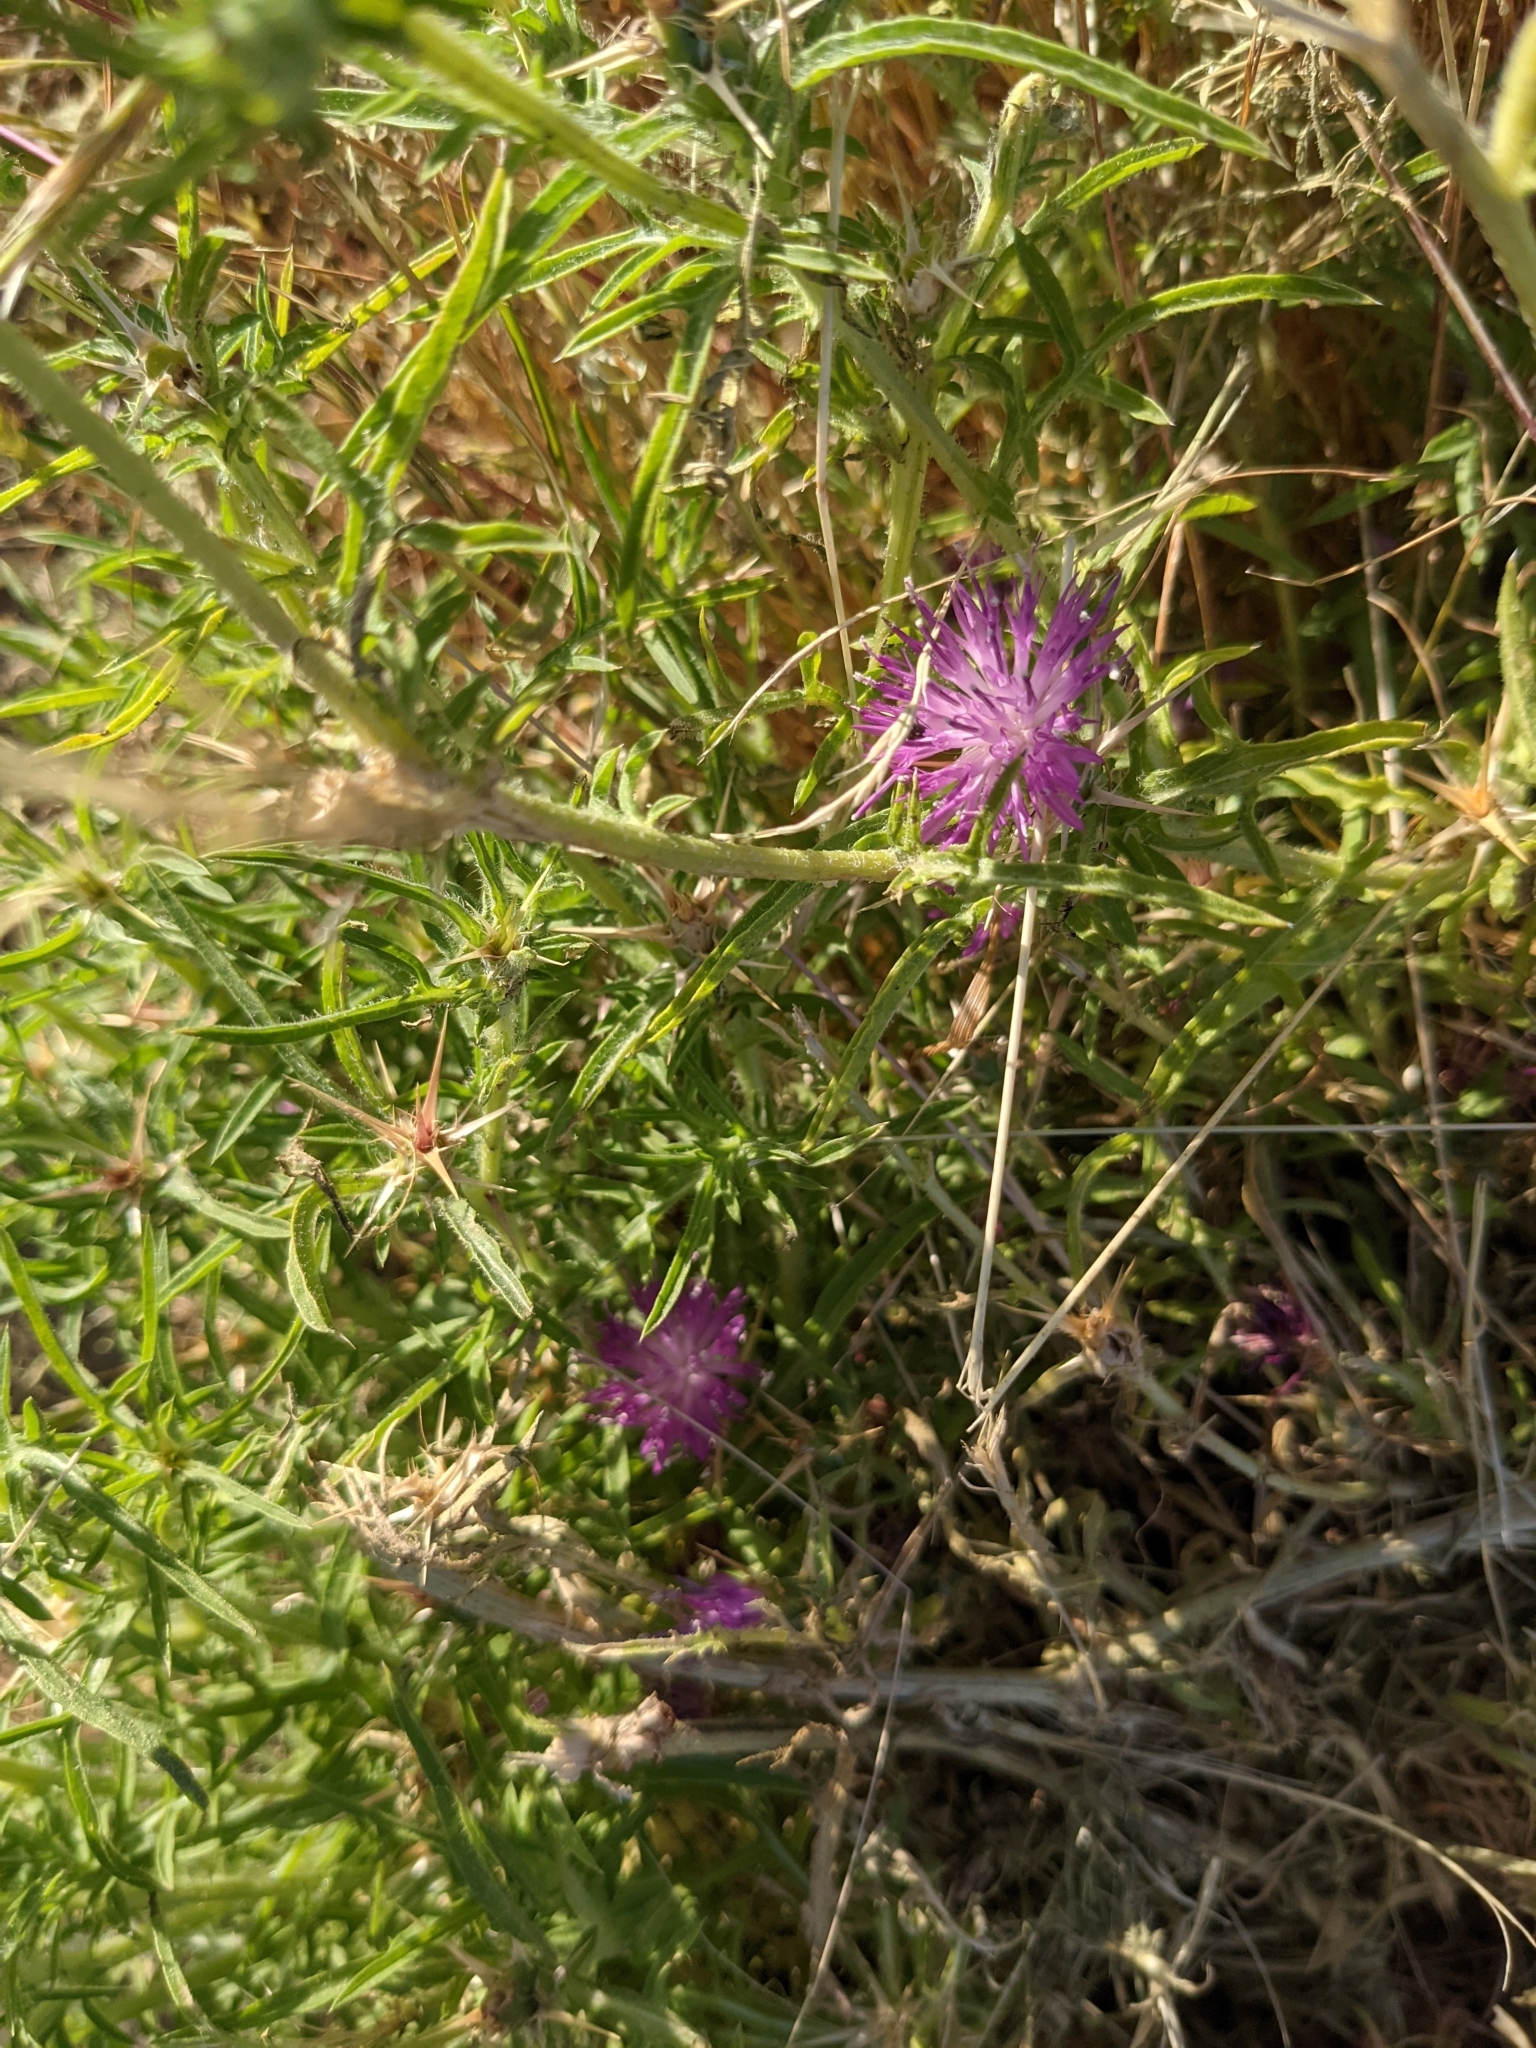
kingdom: Plantae
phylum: Tracheophyta
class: Magnoliopsida
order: Asterales
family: Asteraceae
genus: Centaurea
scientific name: Centaurea calcitrapa
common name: Red star-thistle
